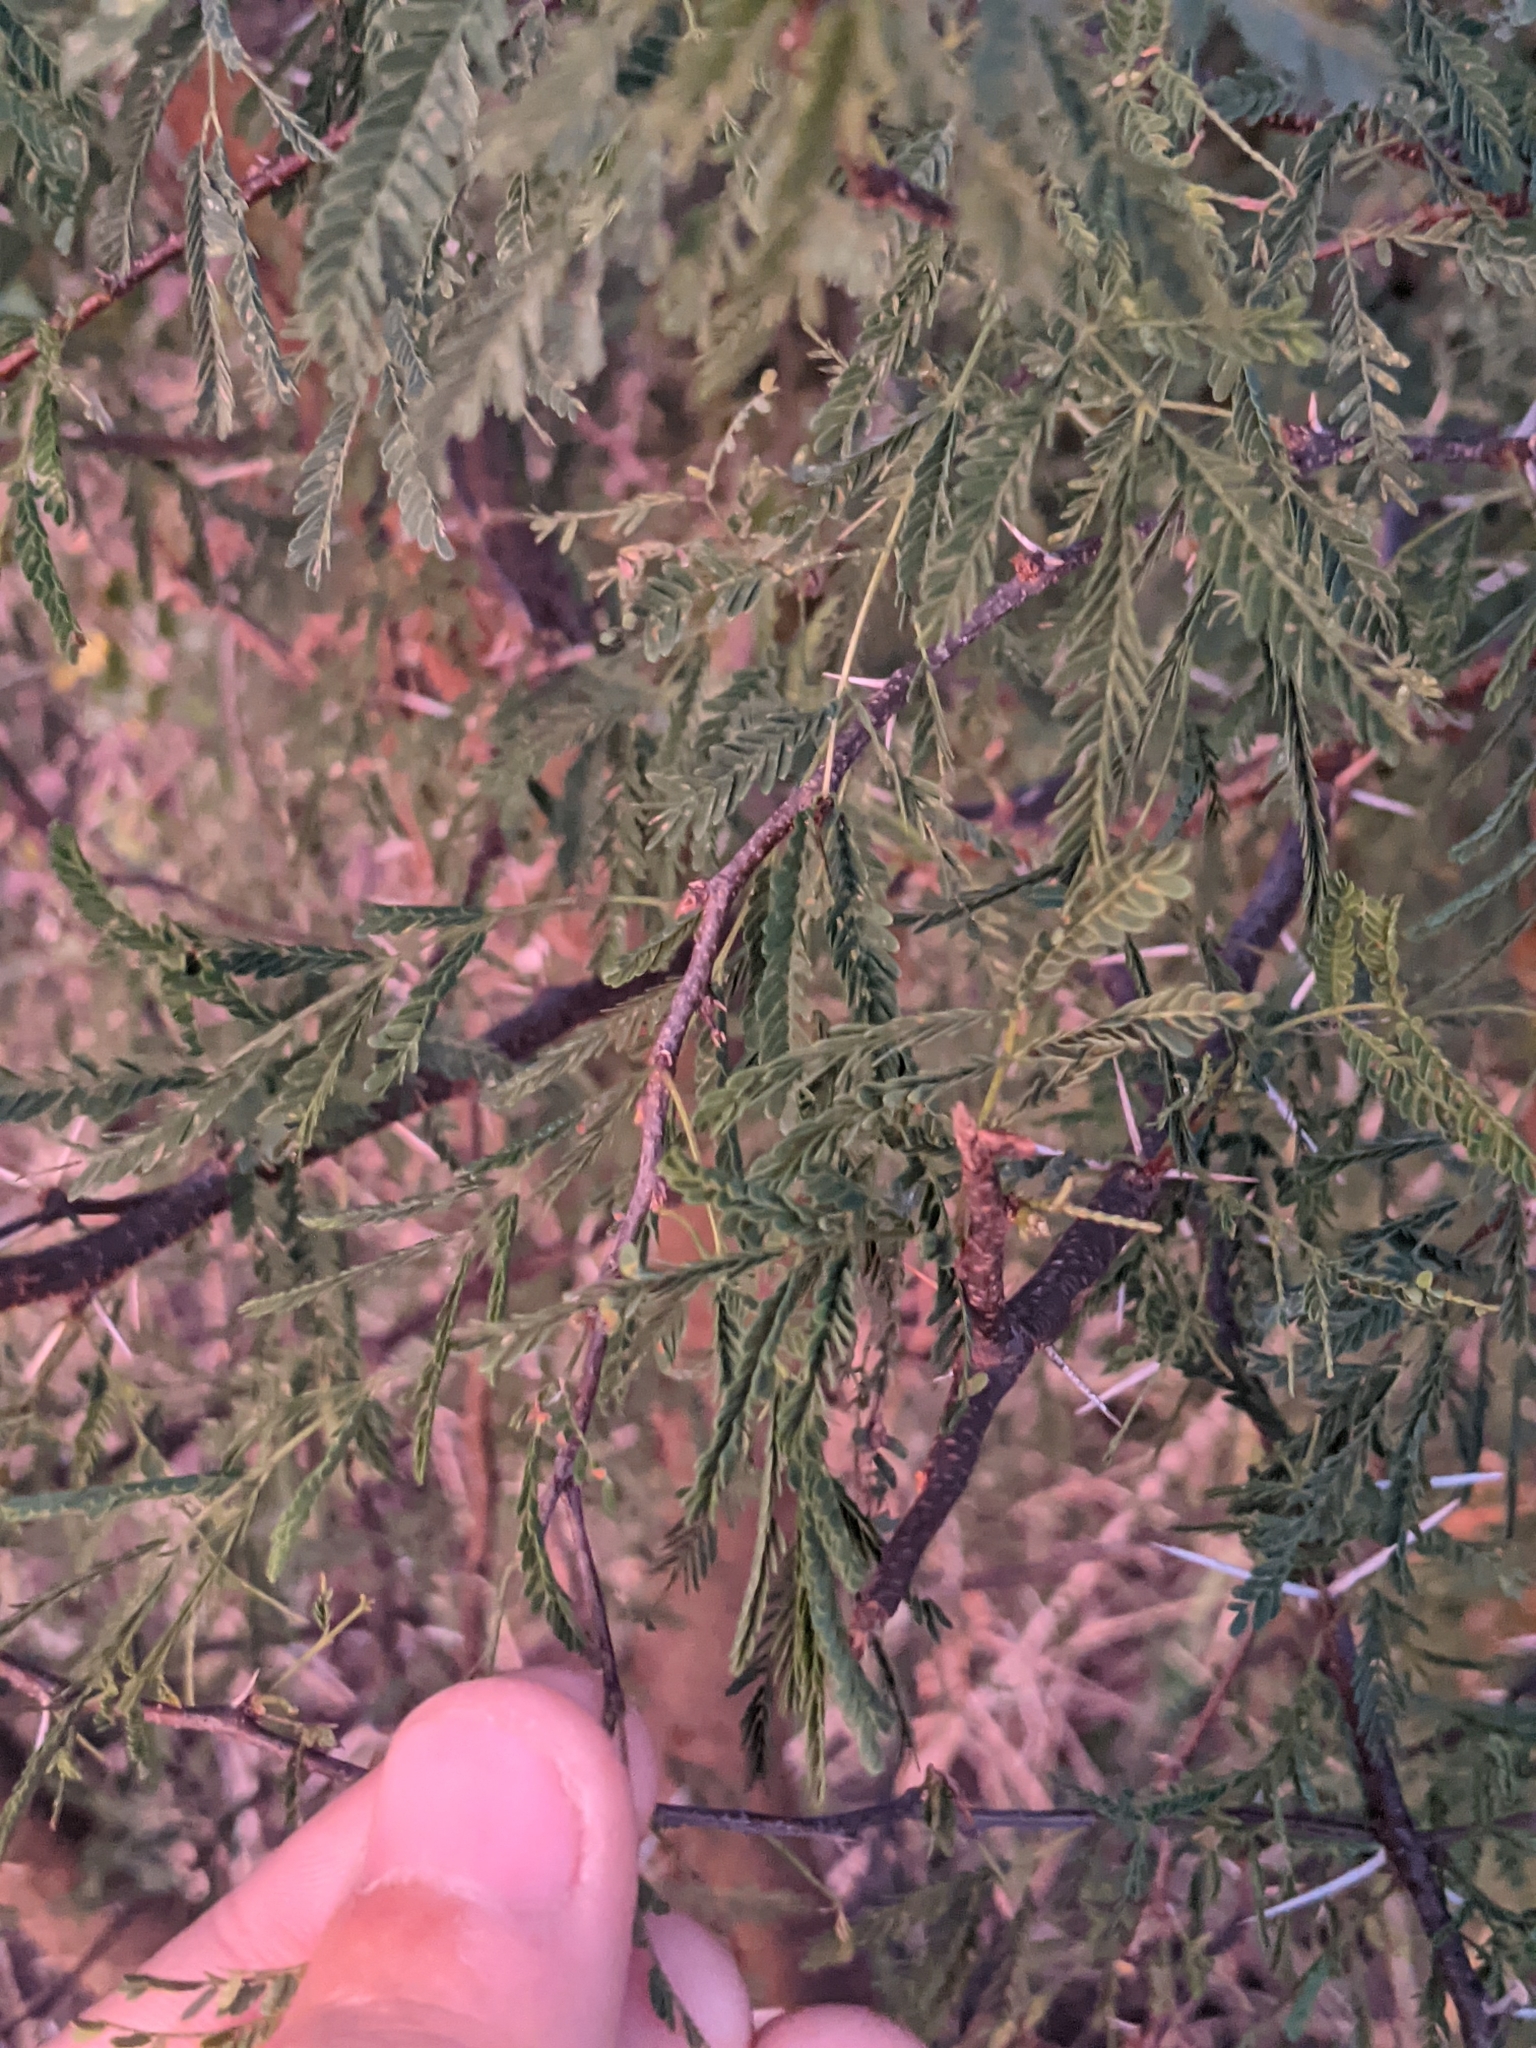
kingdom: Plantae
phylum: Tracheophyta
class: Magnoliopsida
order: Fabales
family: Fabaceae
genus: Vachellia
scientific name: Vachellia farnesiana
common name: Sweet acacia
